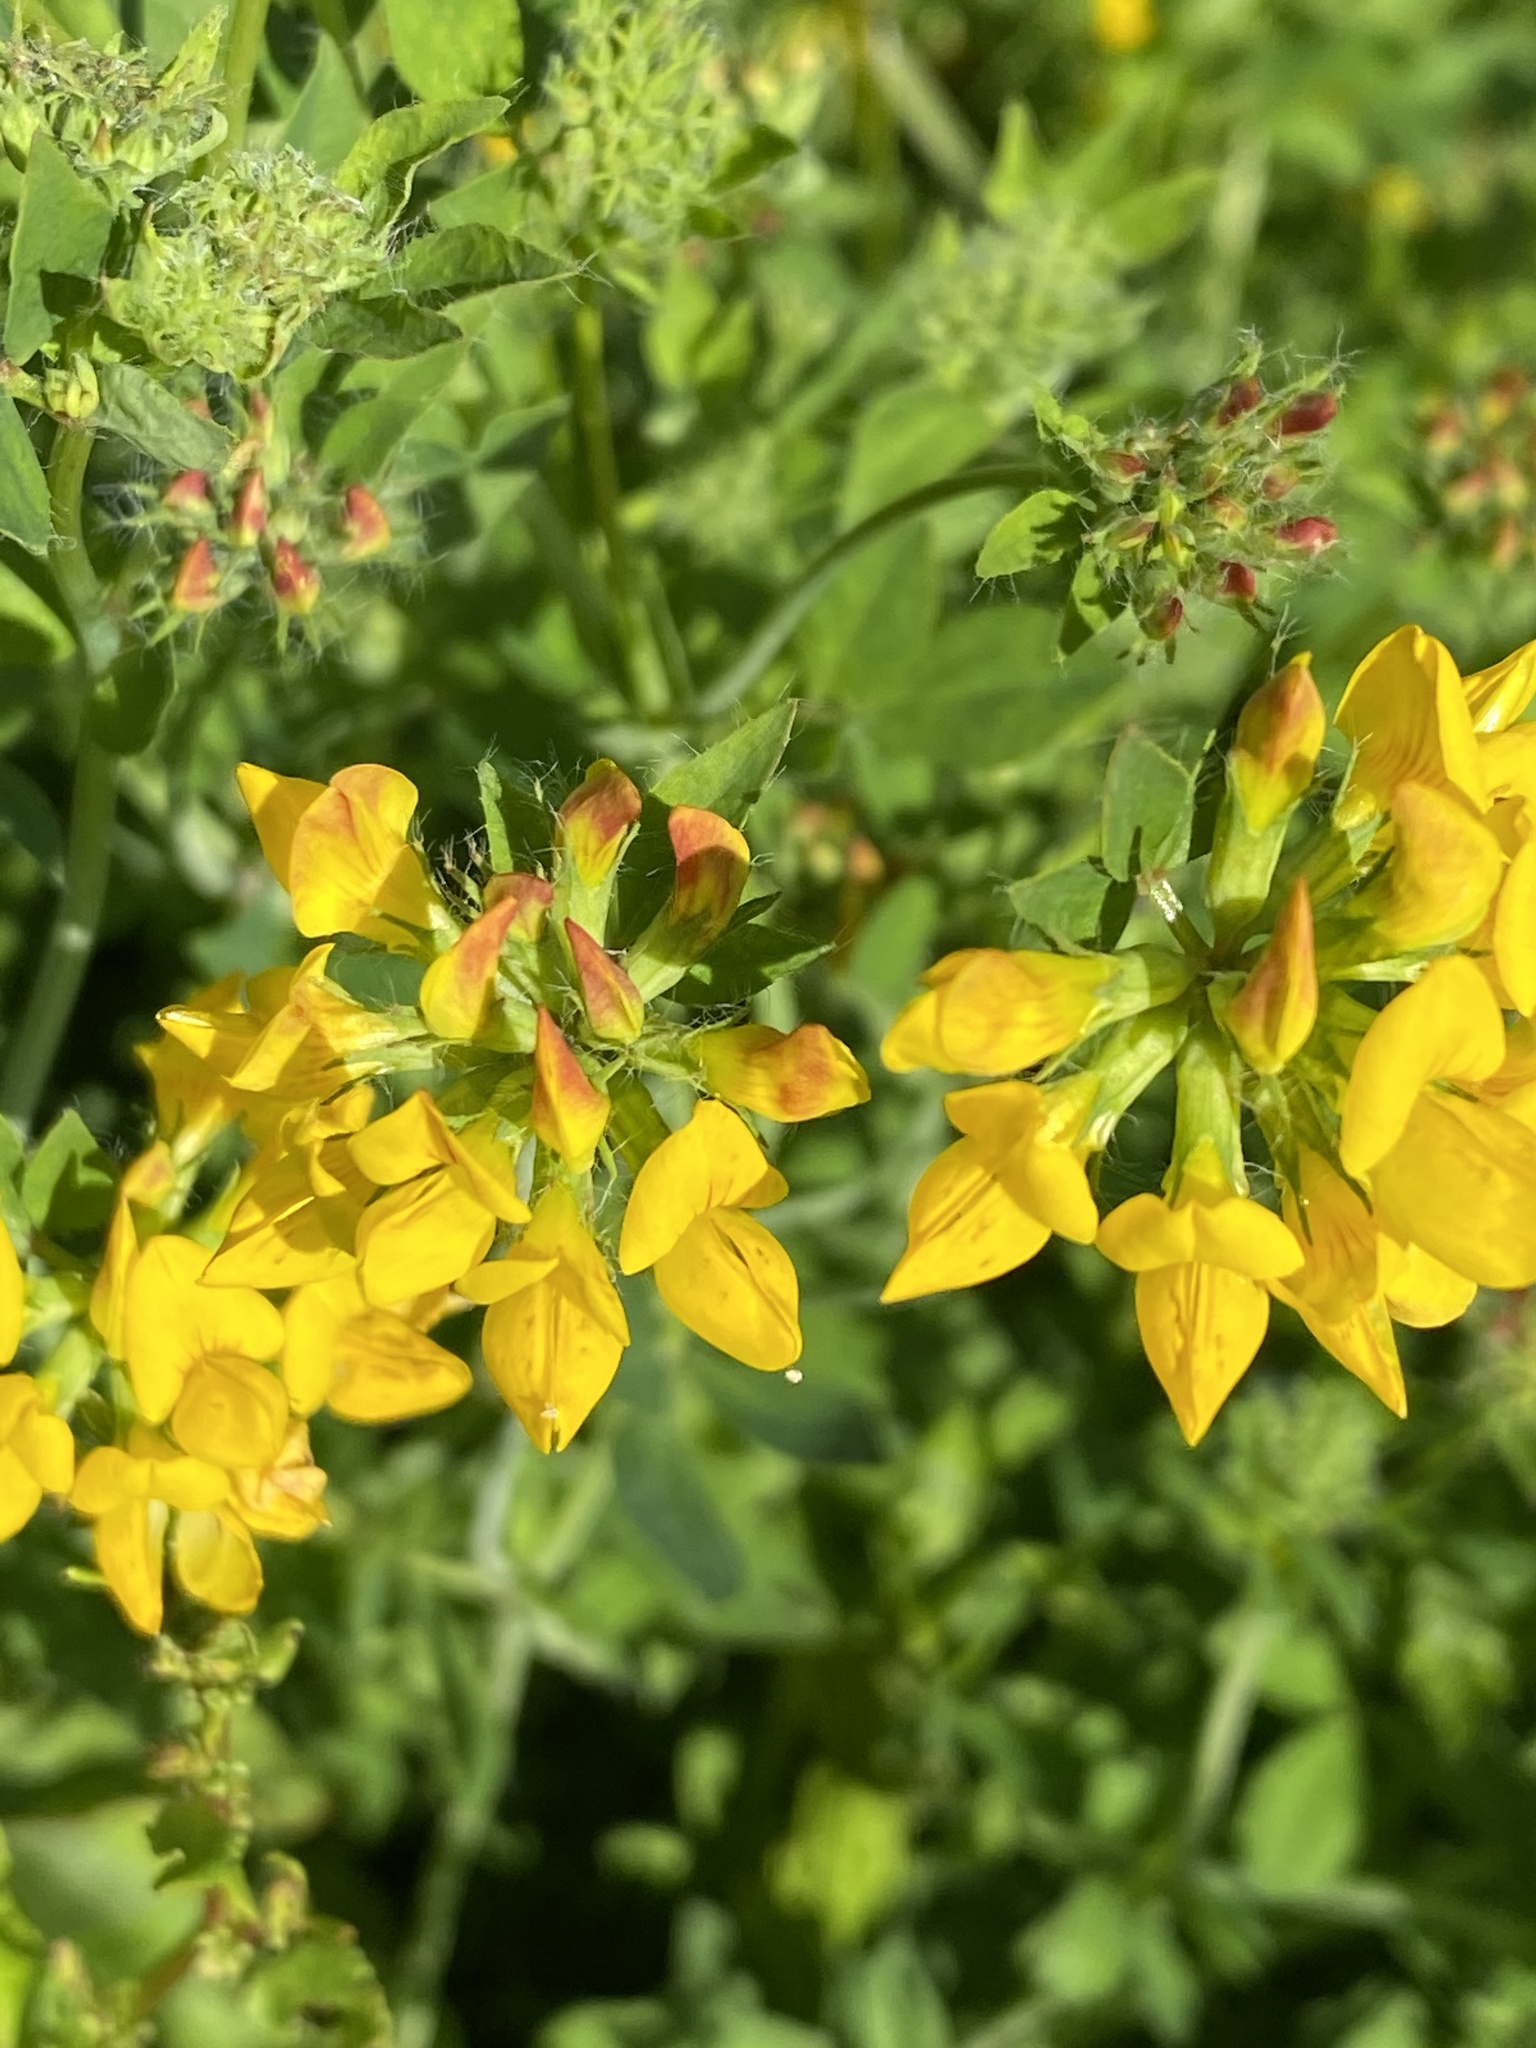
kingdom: Plantae
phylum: Tracheophyta
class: Magnoliopsida
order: Fabales
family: Fabaceae
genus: Lotus
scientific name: Lotus pedunculatus
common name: Greater birdsfoot-trefoil
